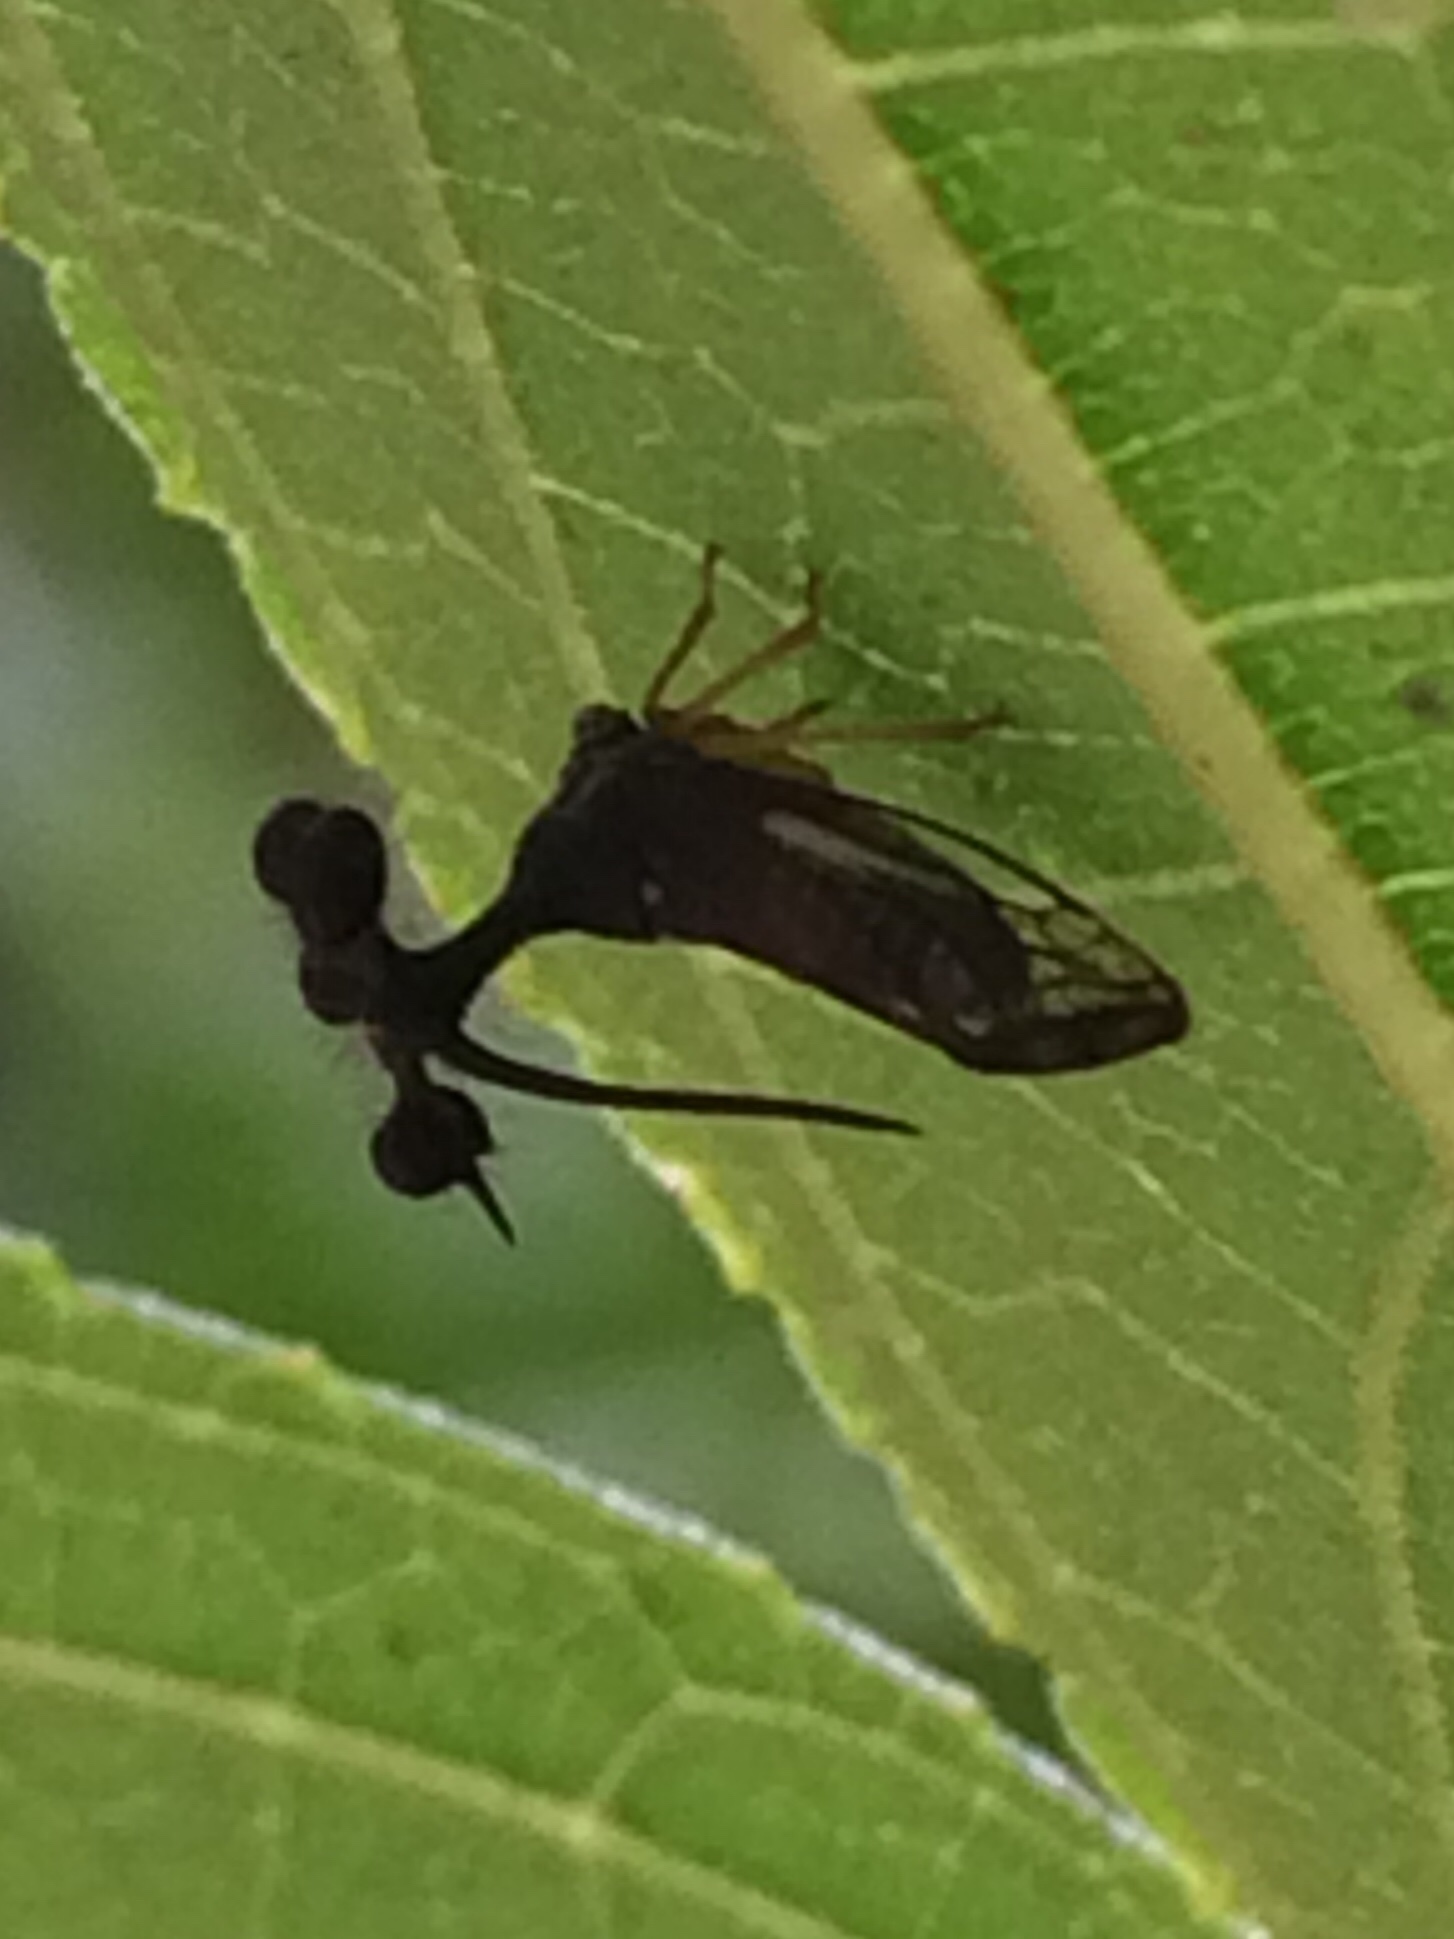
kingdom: Animalia
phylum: Arthropoda
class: Insecta
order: Hemiptera
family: Membracidae
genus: Bocydium
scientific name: Bocydium globulare
